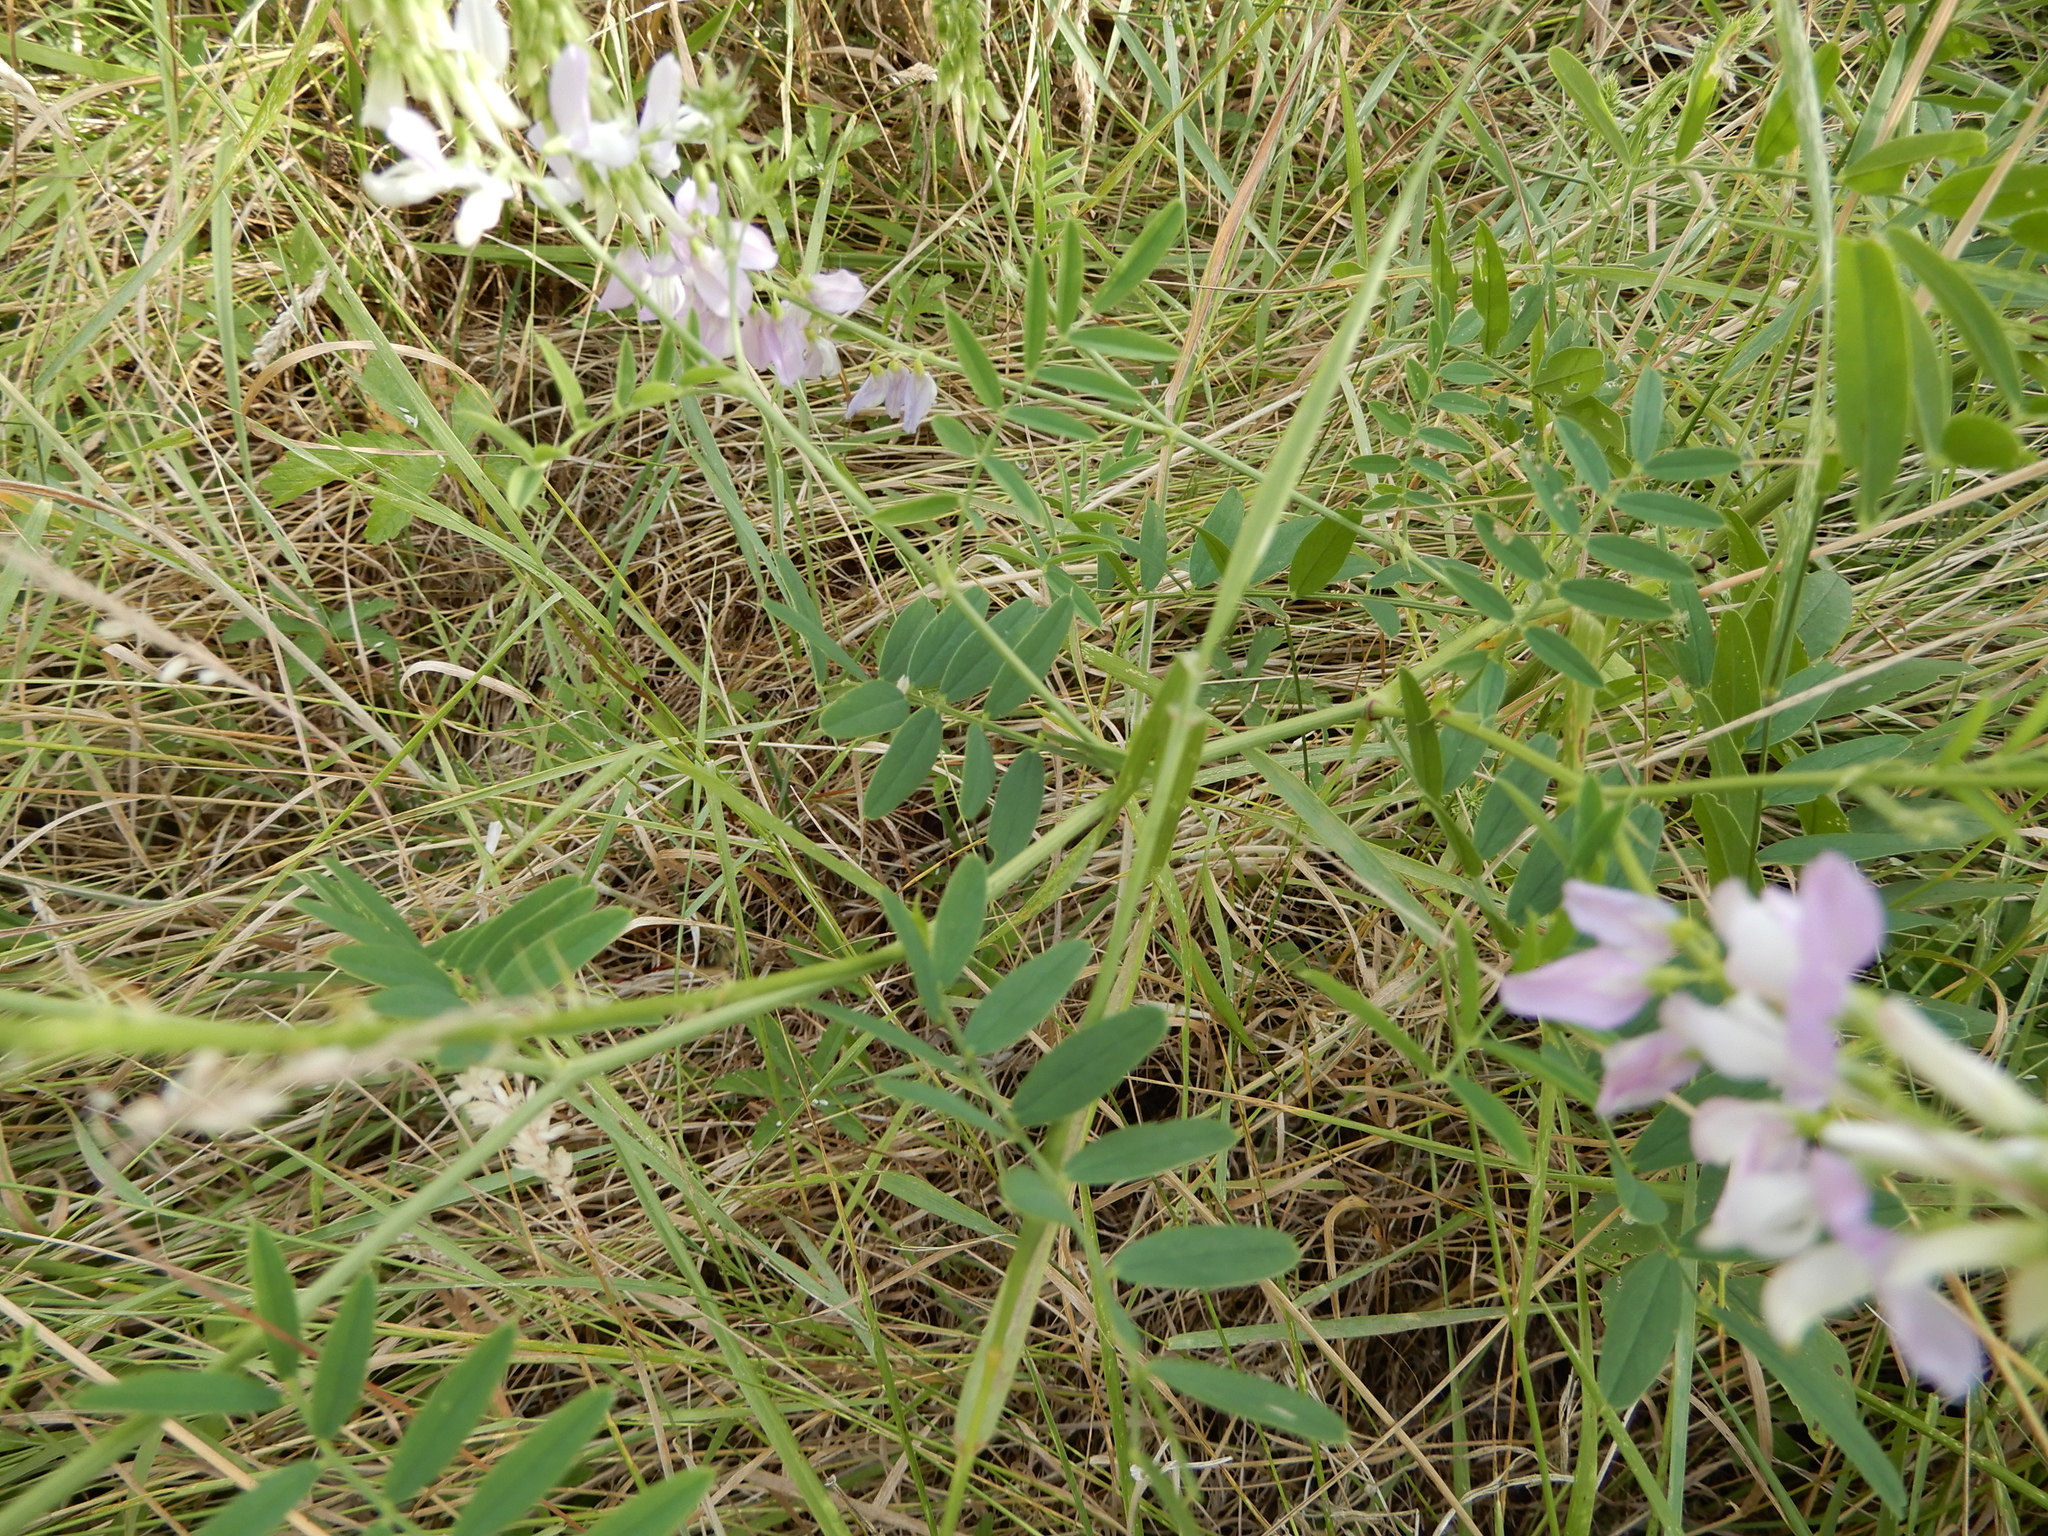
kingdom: Plantae
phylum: Tracheophyta
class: Magnoliopsida
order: Fabales
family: Fabaceae
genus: Galega
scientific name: Galega officinalis
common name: Goat's-rue
